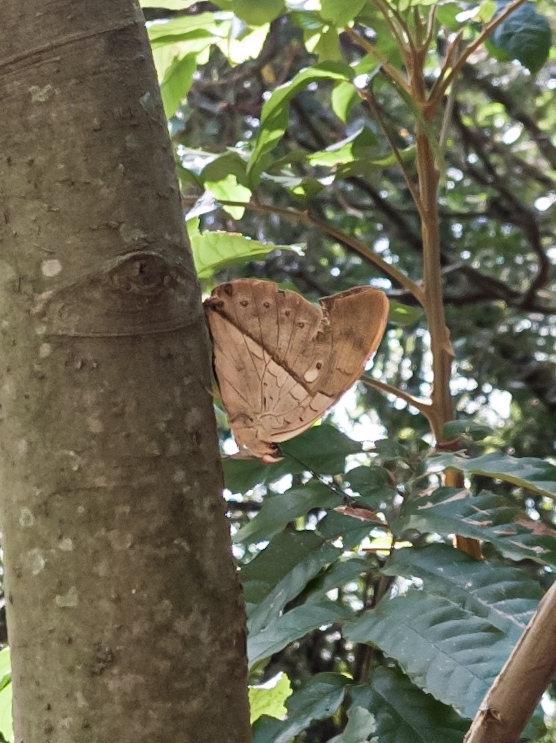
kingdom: Animalia
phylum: Arthropoda
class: Insecta
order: Lepidoptera
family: Nymphalidae
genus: Prepona
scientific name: Prepona meander
